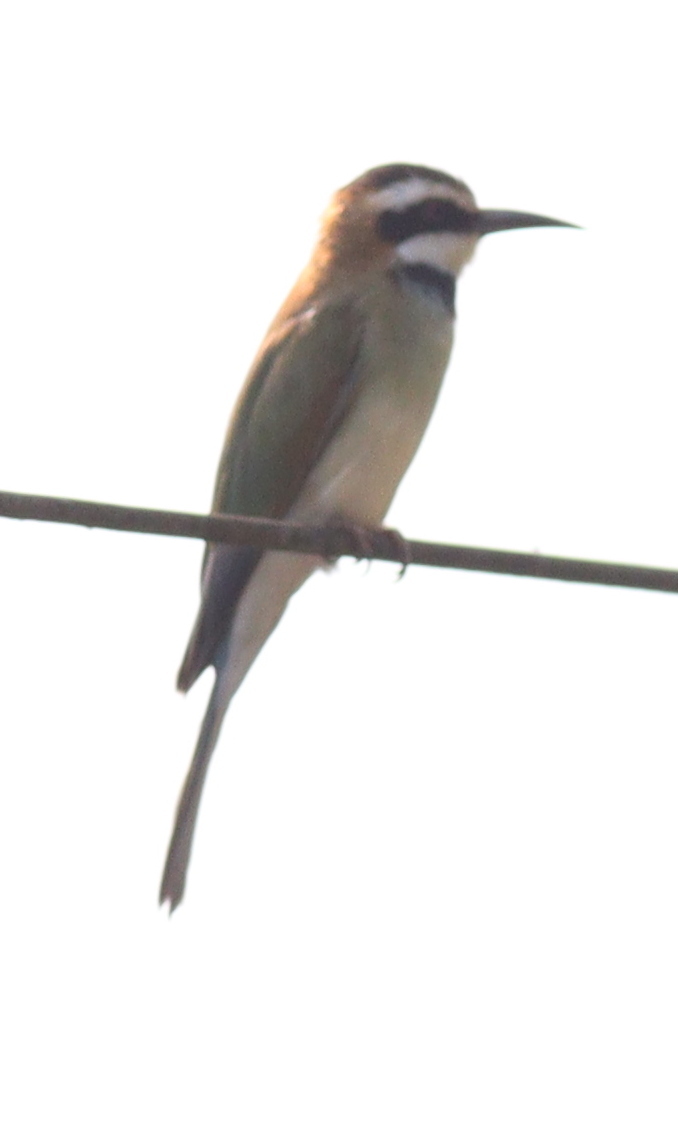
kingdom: Animalia
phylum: Chordata
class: Aves
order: Coraciiformes
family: Meropidae
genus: Merops
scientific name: Merops albicollis
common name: White-throated bee-eater
